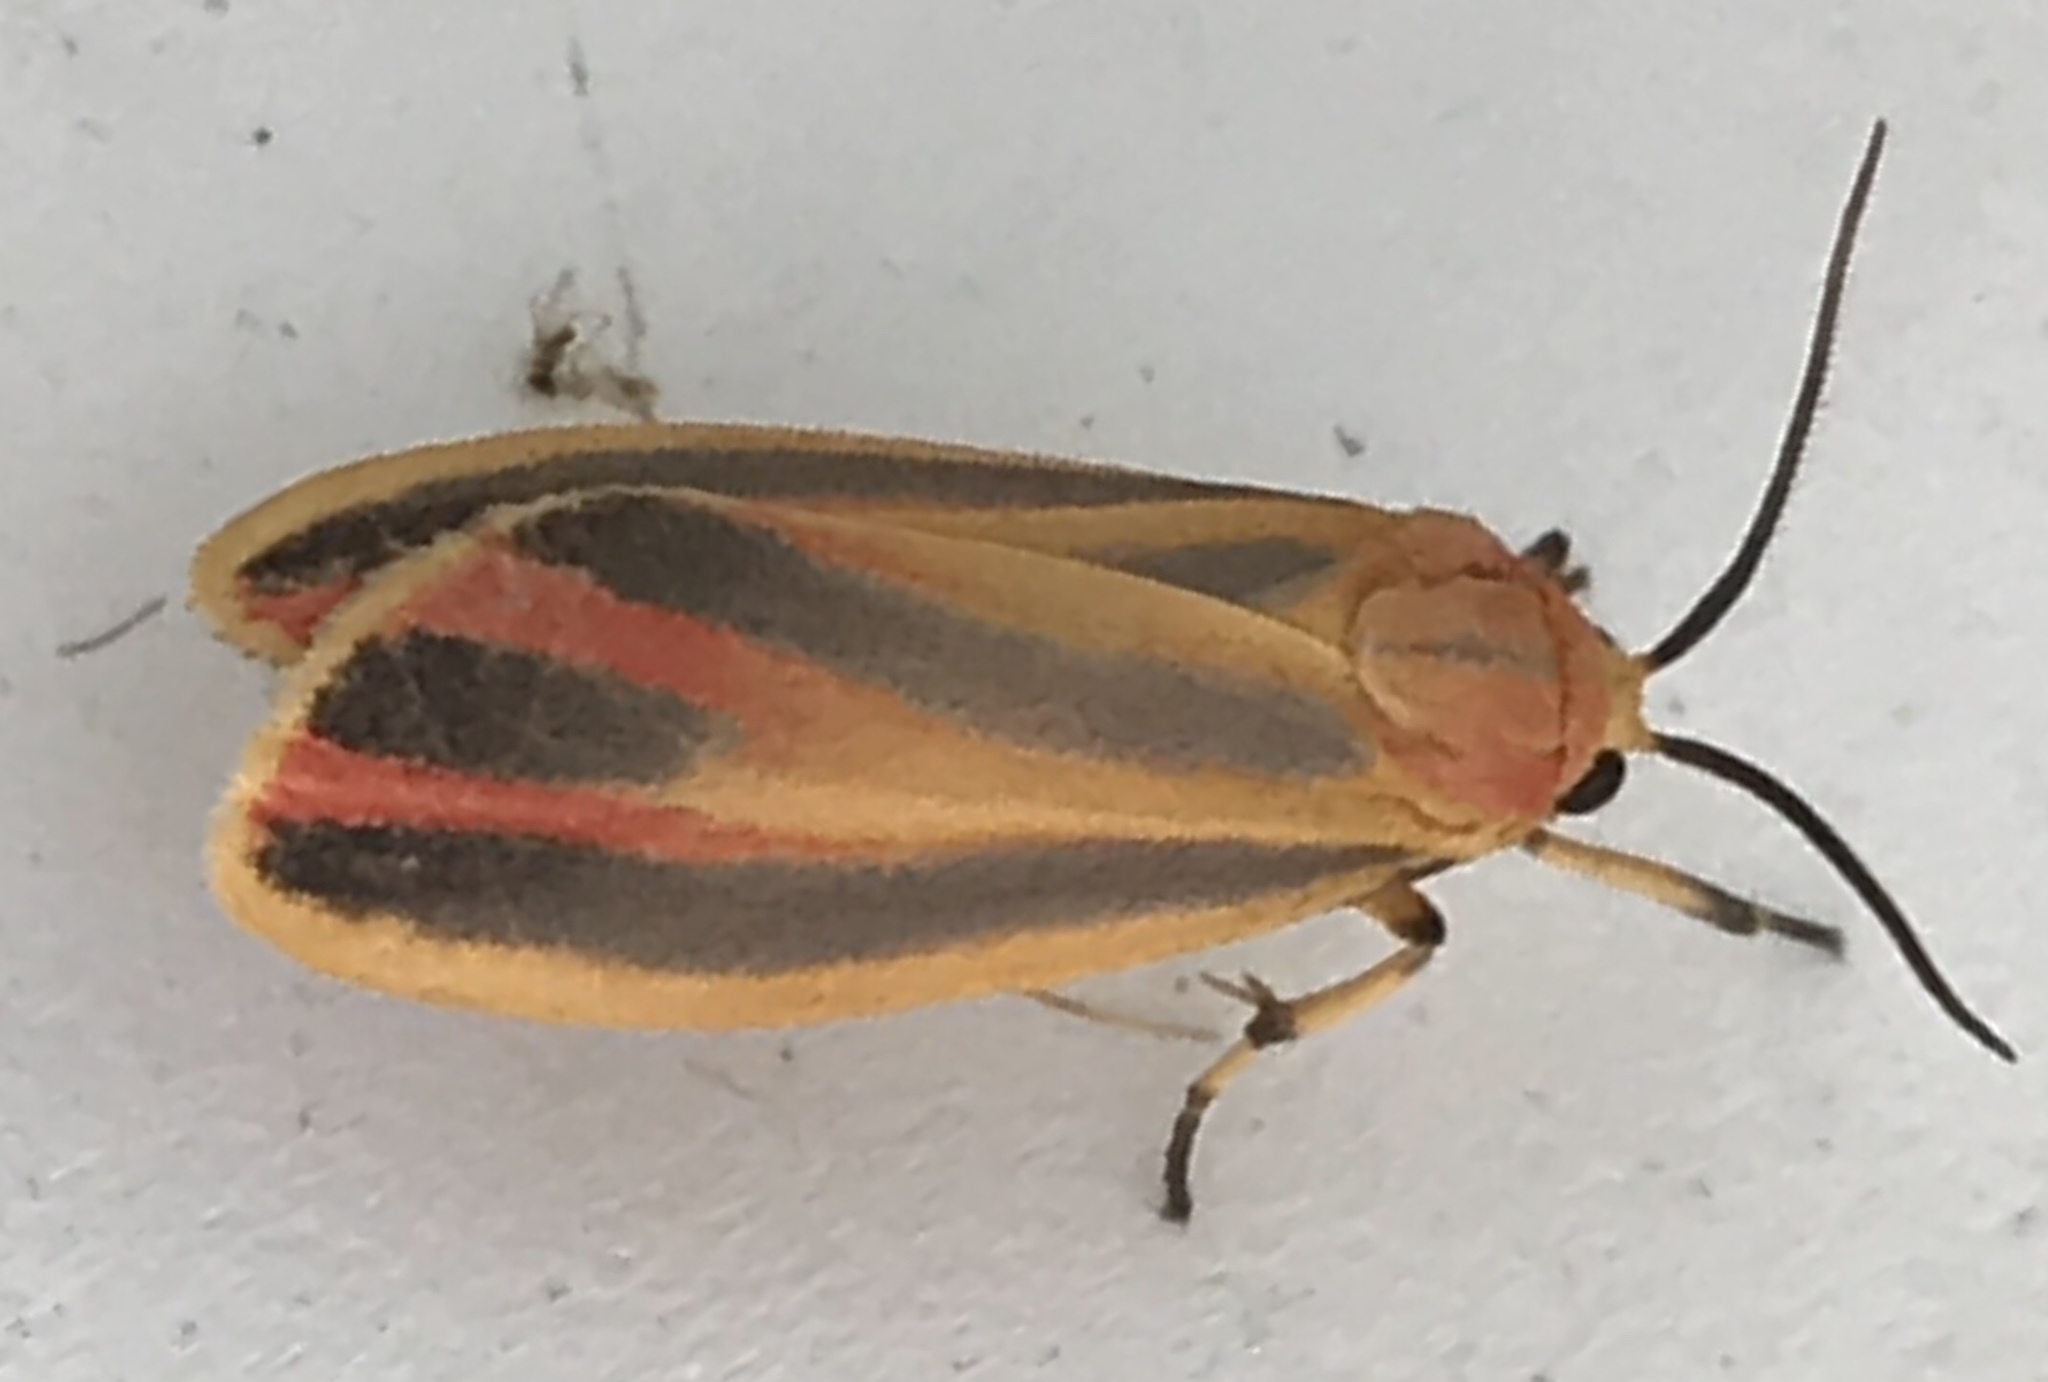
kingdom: Animalia
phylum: Arthropoda
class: Insecta
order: Lepidoptera
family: Erebidae
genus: Hypoprepia
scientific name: Hypoprepia fucosa
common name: Painted lichen moth
